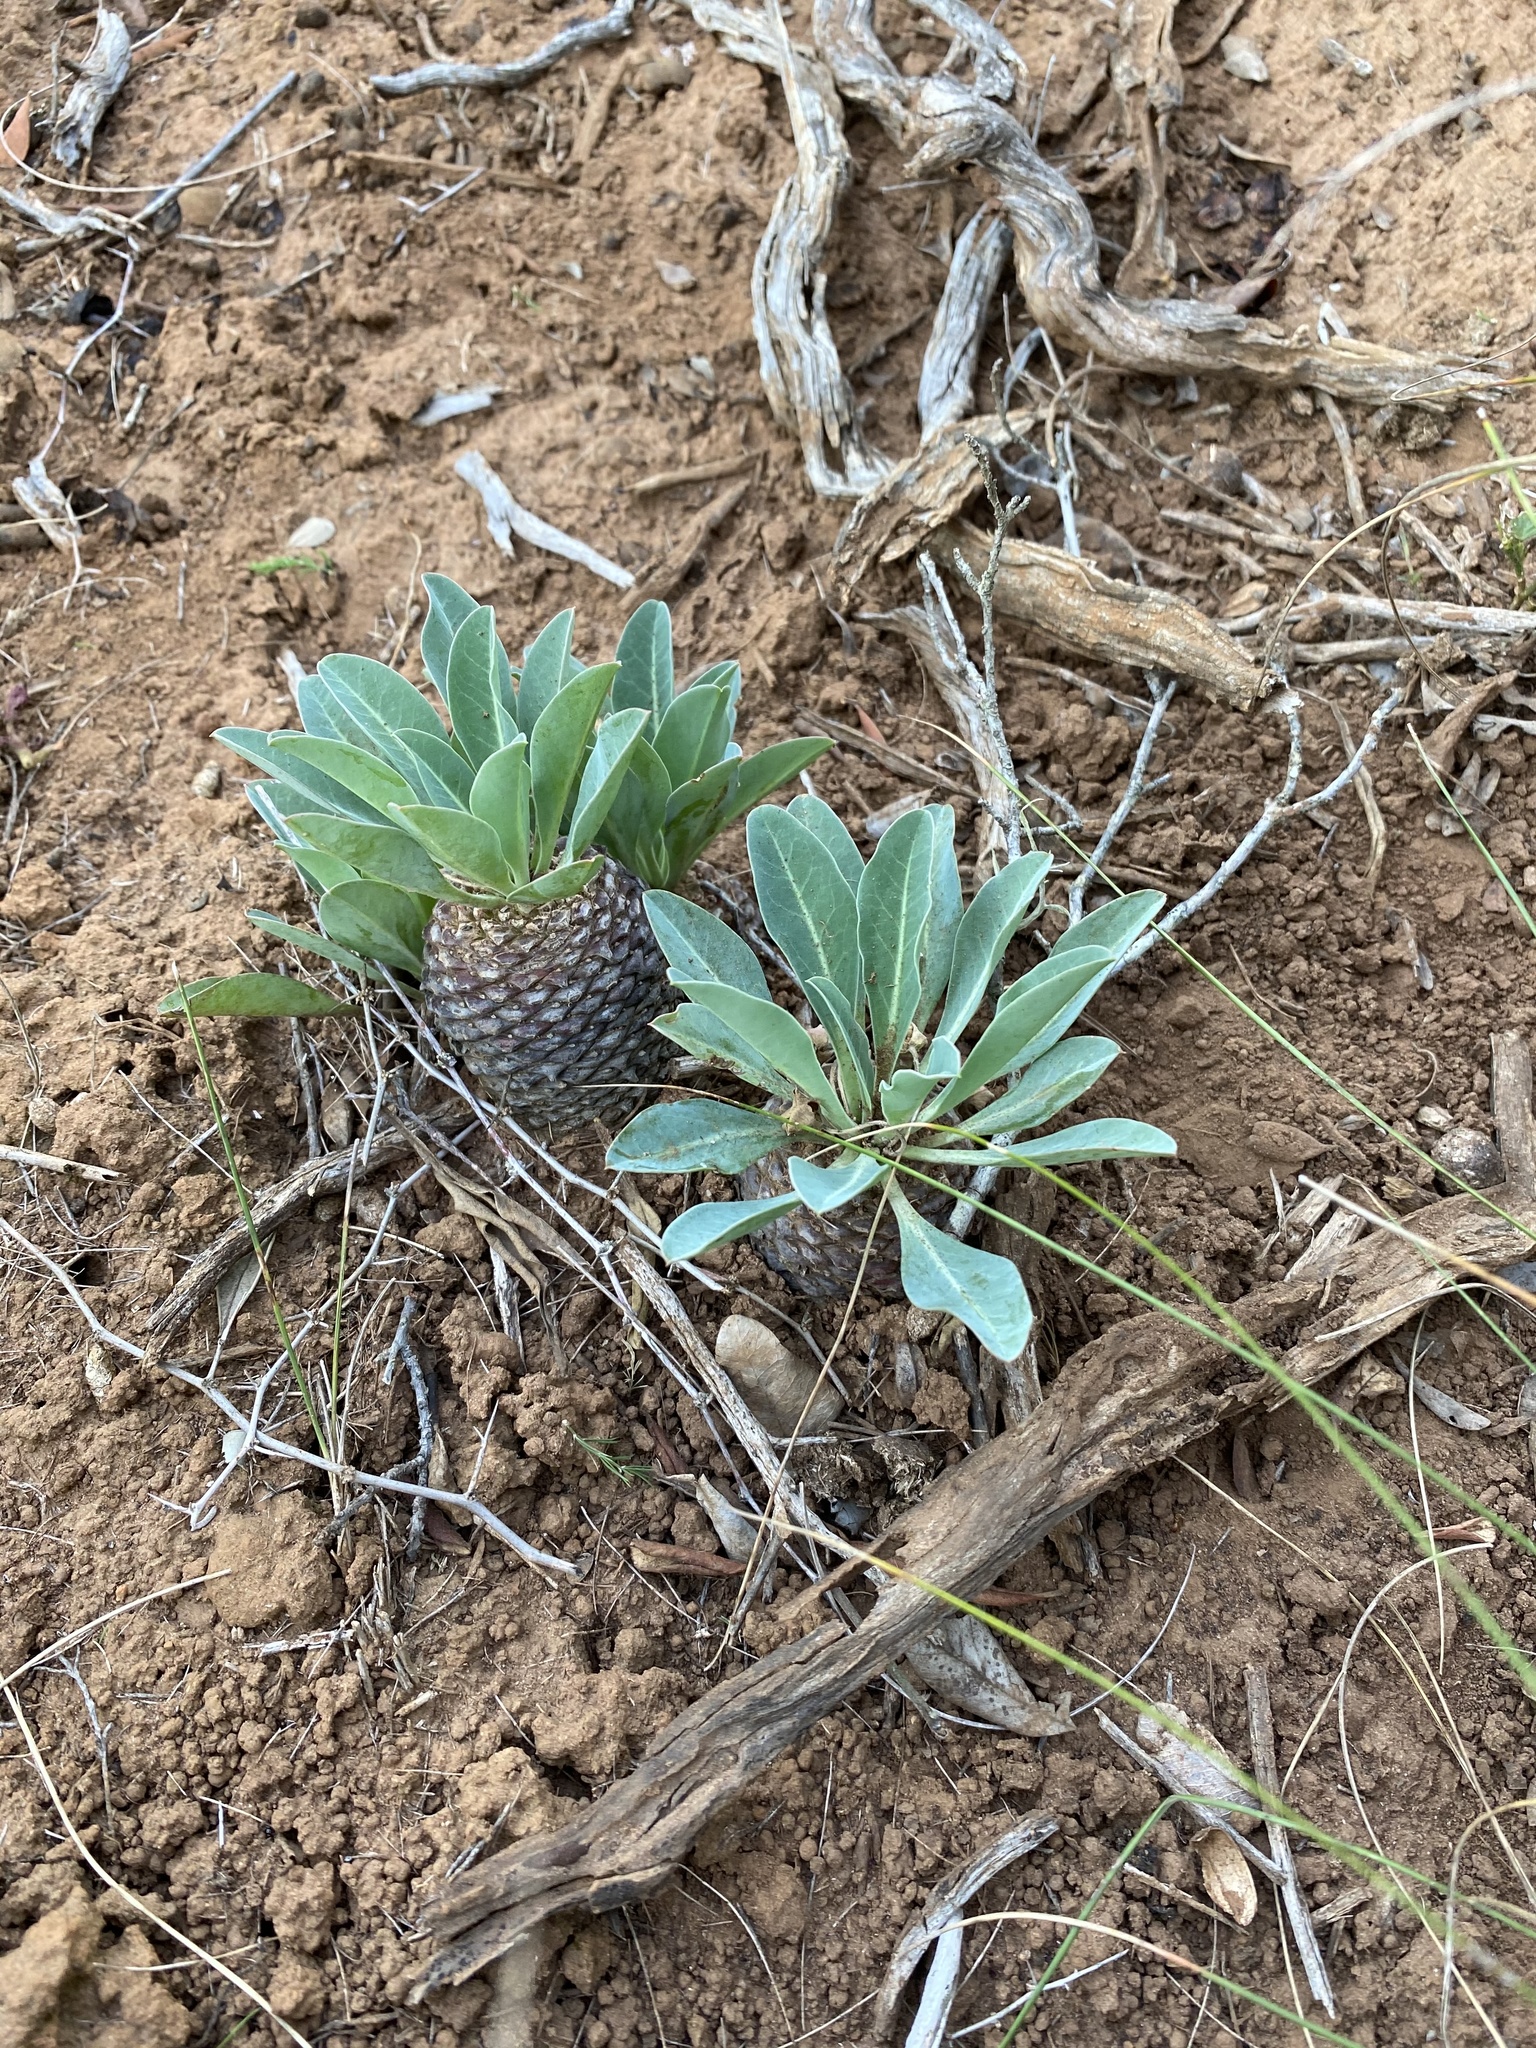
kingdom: Plantae
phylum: Tracheophyta
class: Magnoliopsida
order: Malpighiales
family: Euphorbiaceae
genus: Euphorbia
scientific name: Euphorbia bupleurifolia
